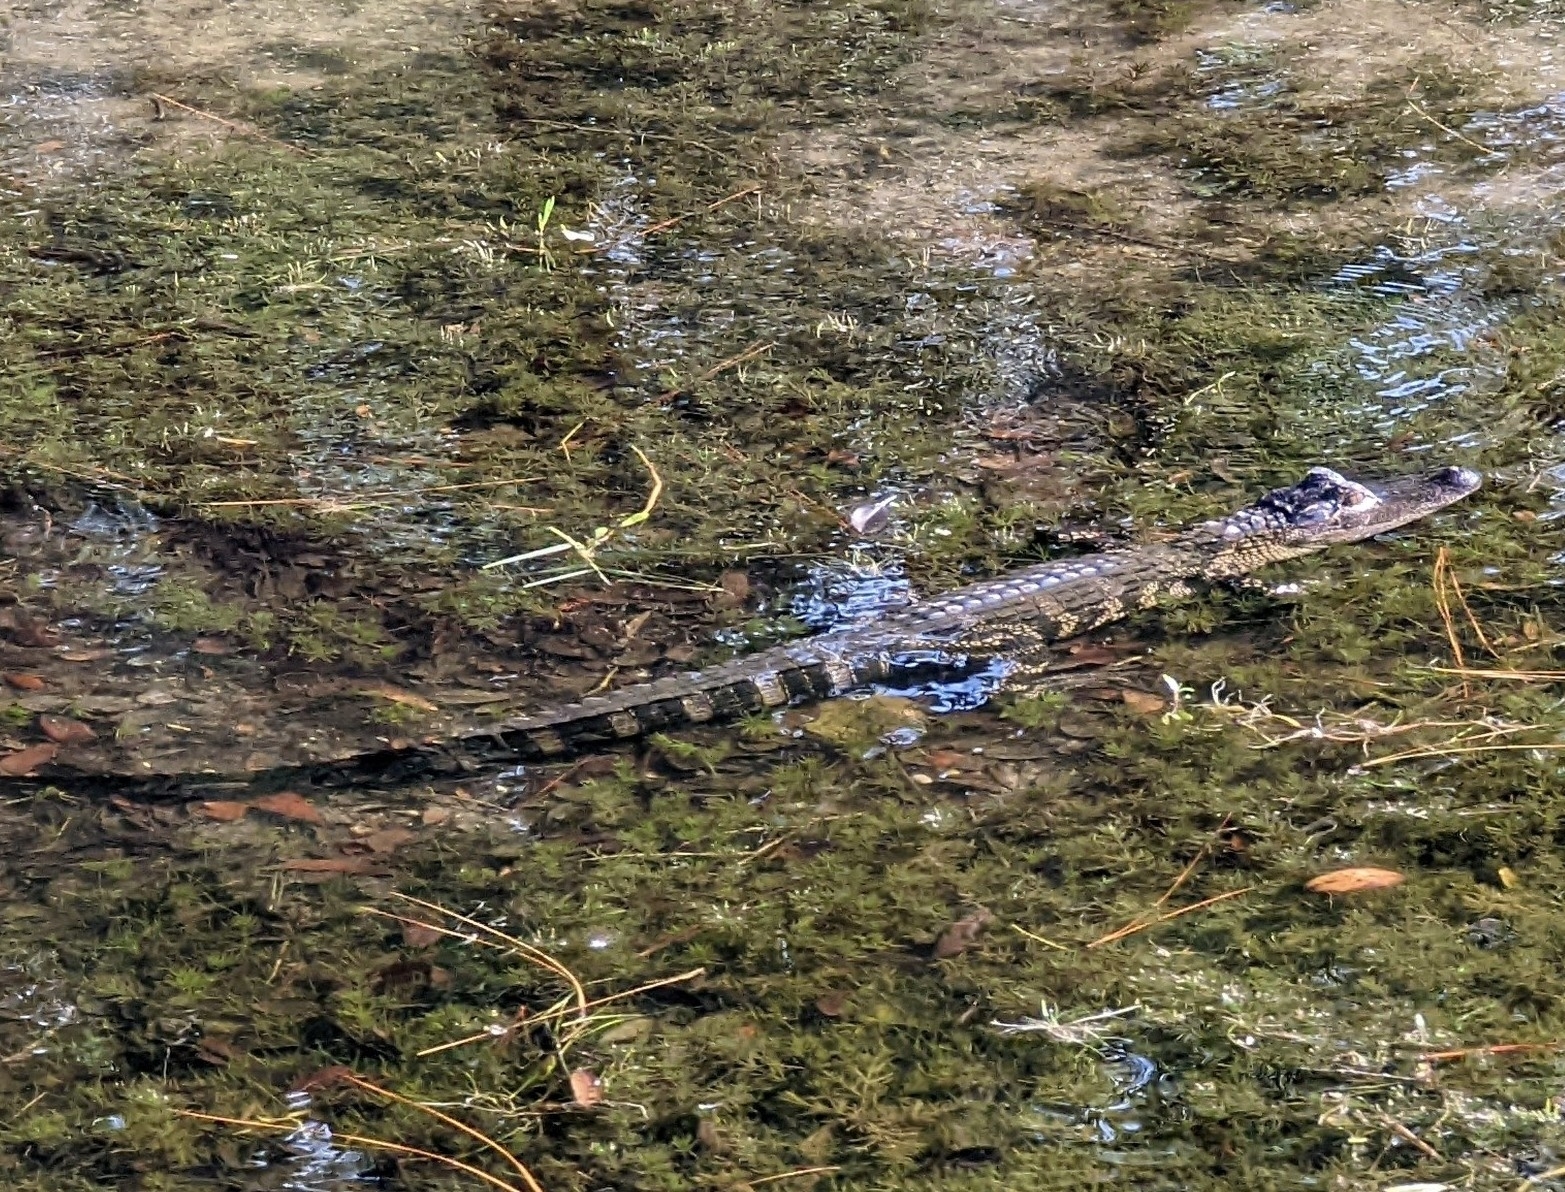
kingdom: Animalia
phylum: Chordata
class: Crocodylia
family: Alligatoridae
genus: Alligator
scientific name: Alligator mississippiensis
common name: American alligator
